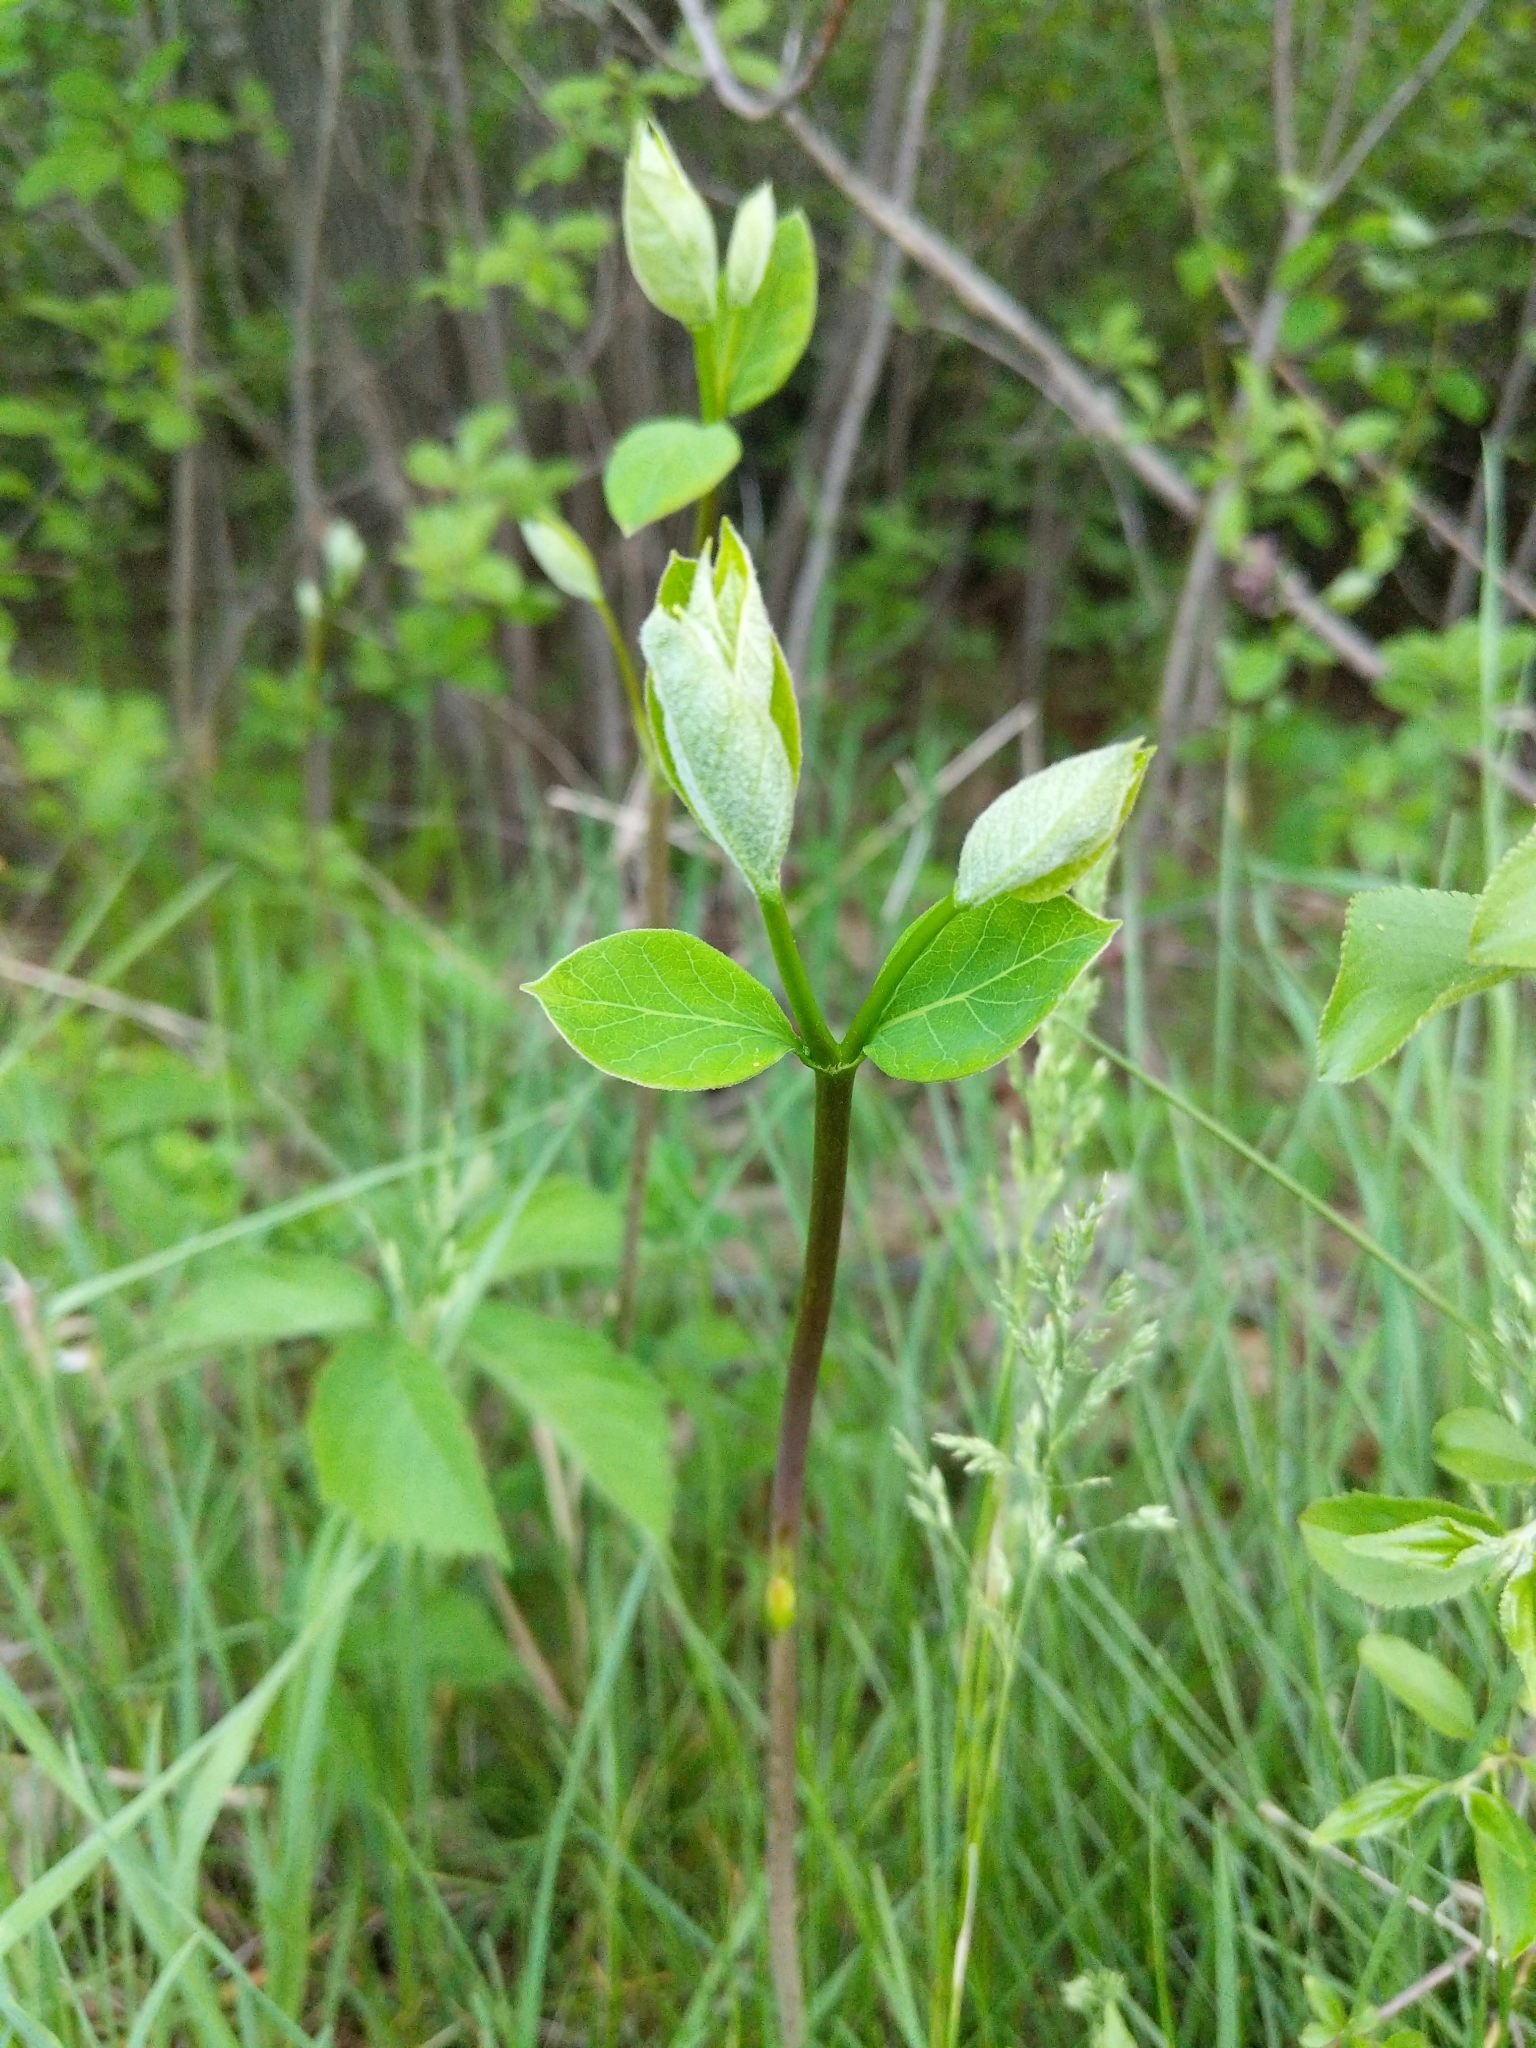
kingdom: Plantae
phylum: Tracheophyta
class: Magnoliopsida
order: Gentianales
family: Apocynaceae
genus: Apocynum
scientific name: Apocynum androsaemifolium
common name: Spreading dogbane
